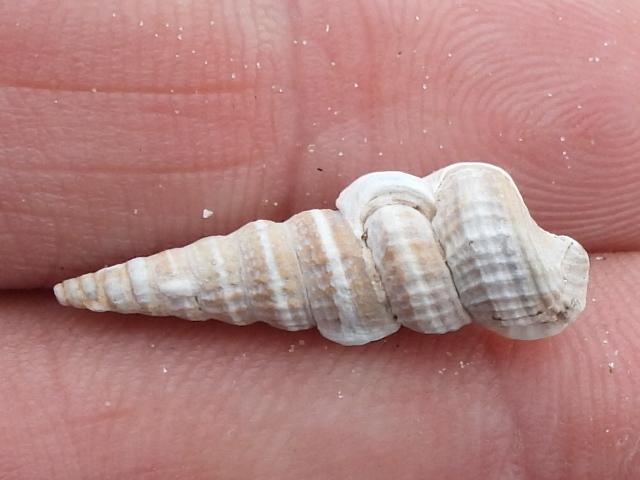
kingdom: Animalia
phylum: Mollusca
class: Gastropoda
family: Potamididae
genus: Cerithideopsis
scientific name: Cerithideopsis pliculosa
